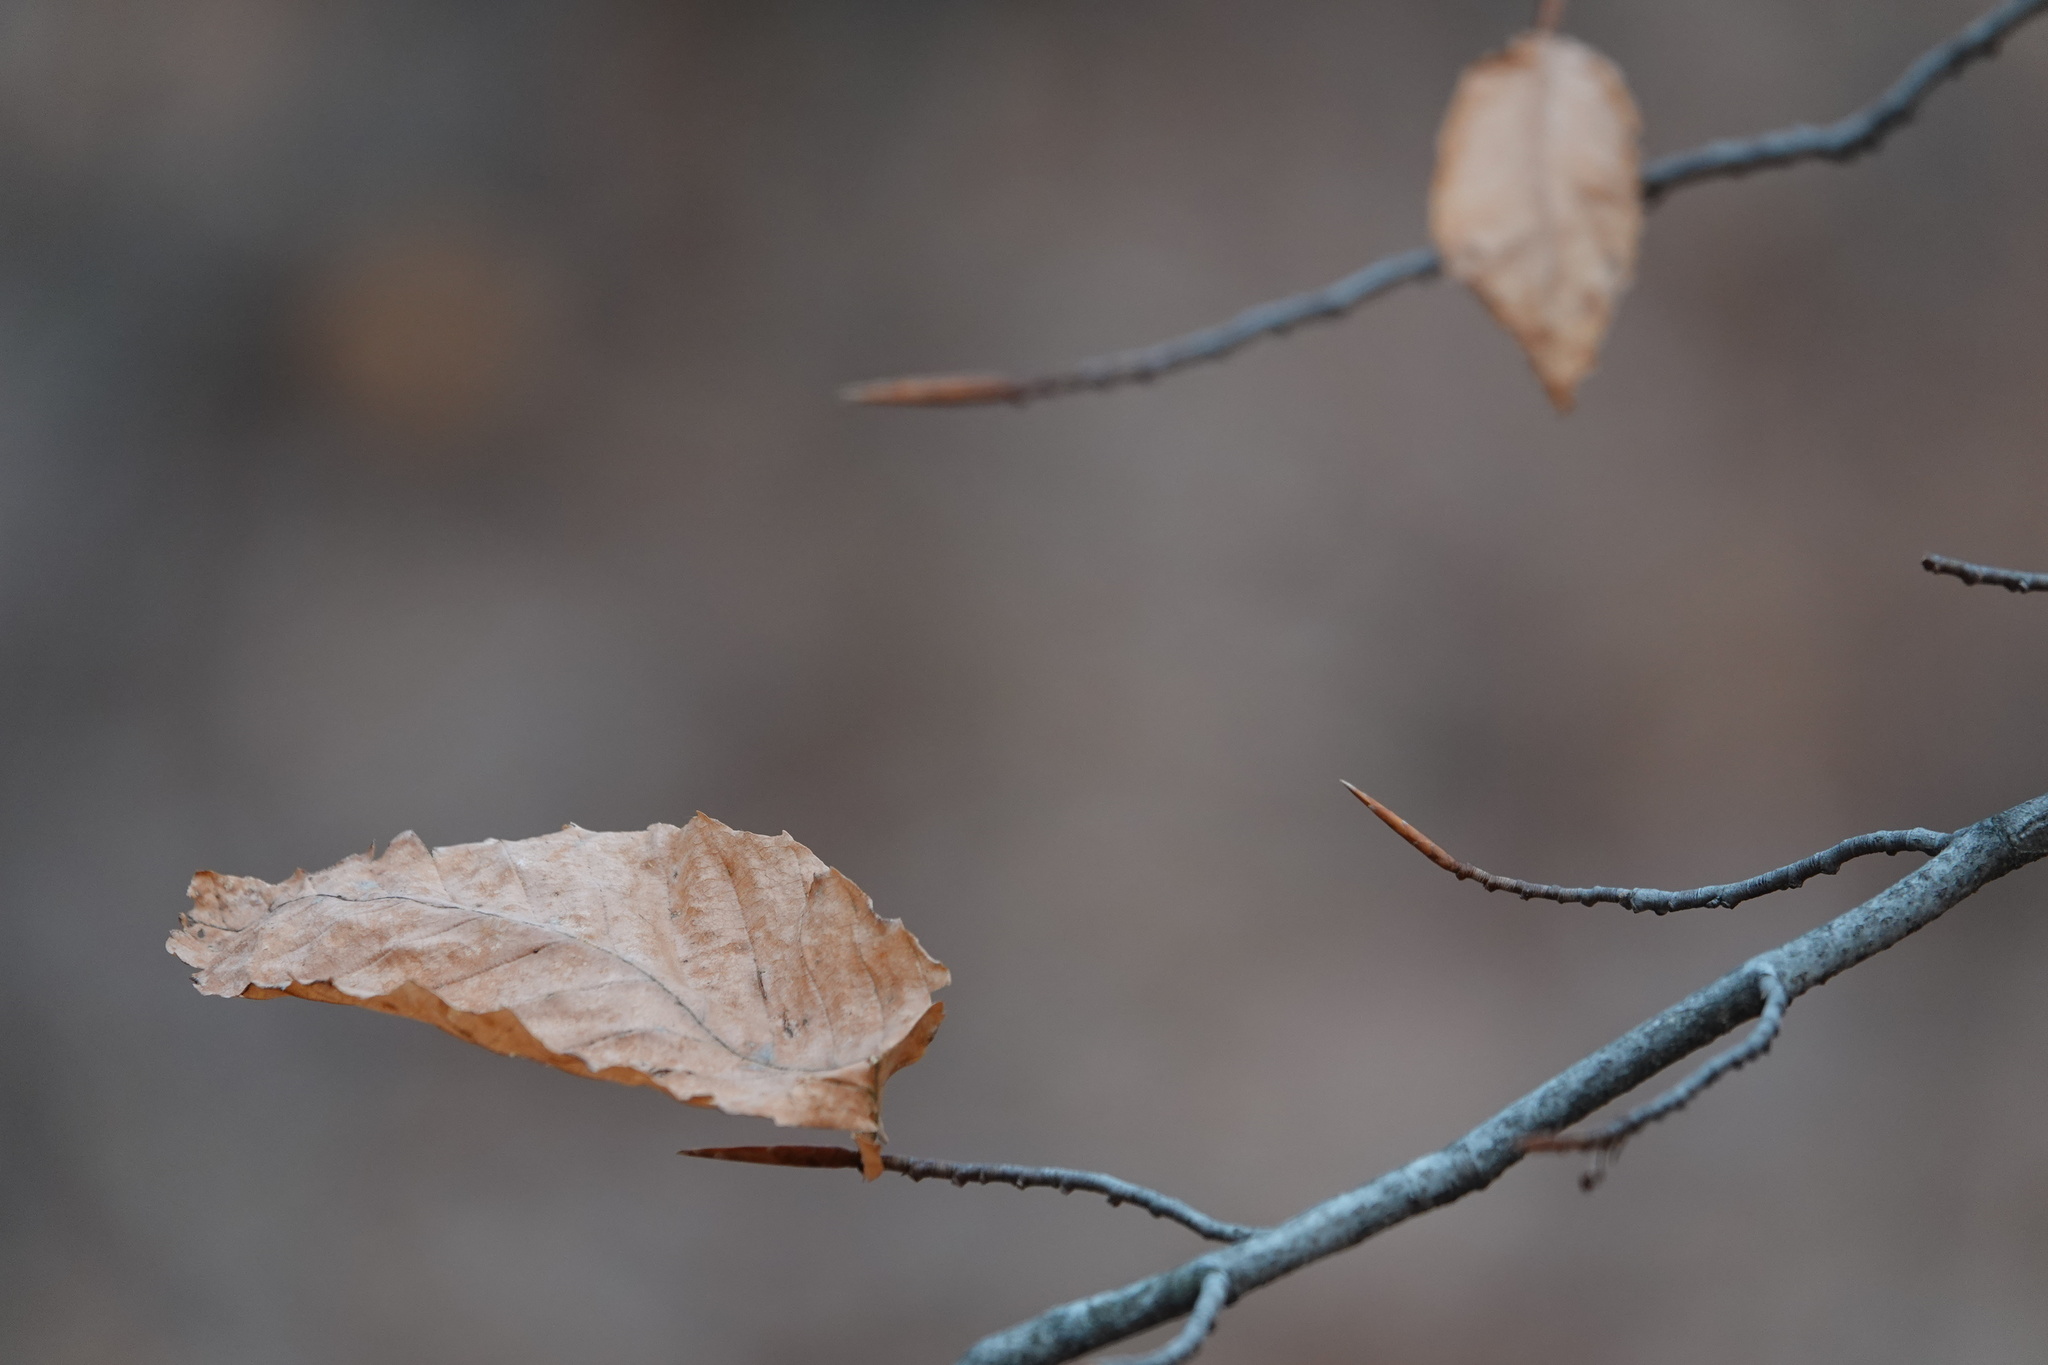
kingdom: Plantae
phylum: Tracheophyta
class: Magnoliopsida
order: Fagales
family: Fagaceae
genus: Fagus
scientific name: Fagus grandifolia
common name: American beech
